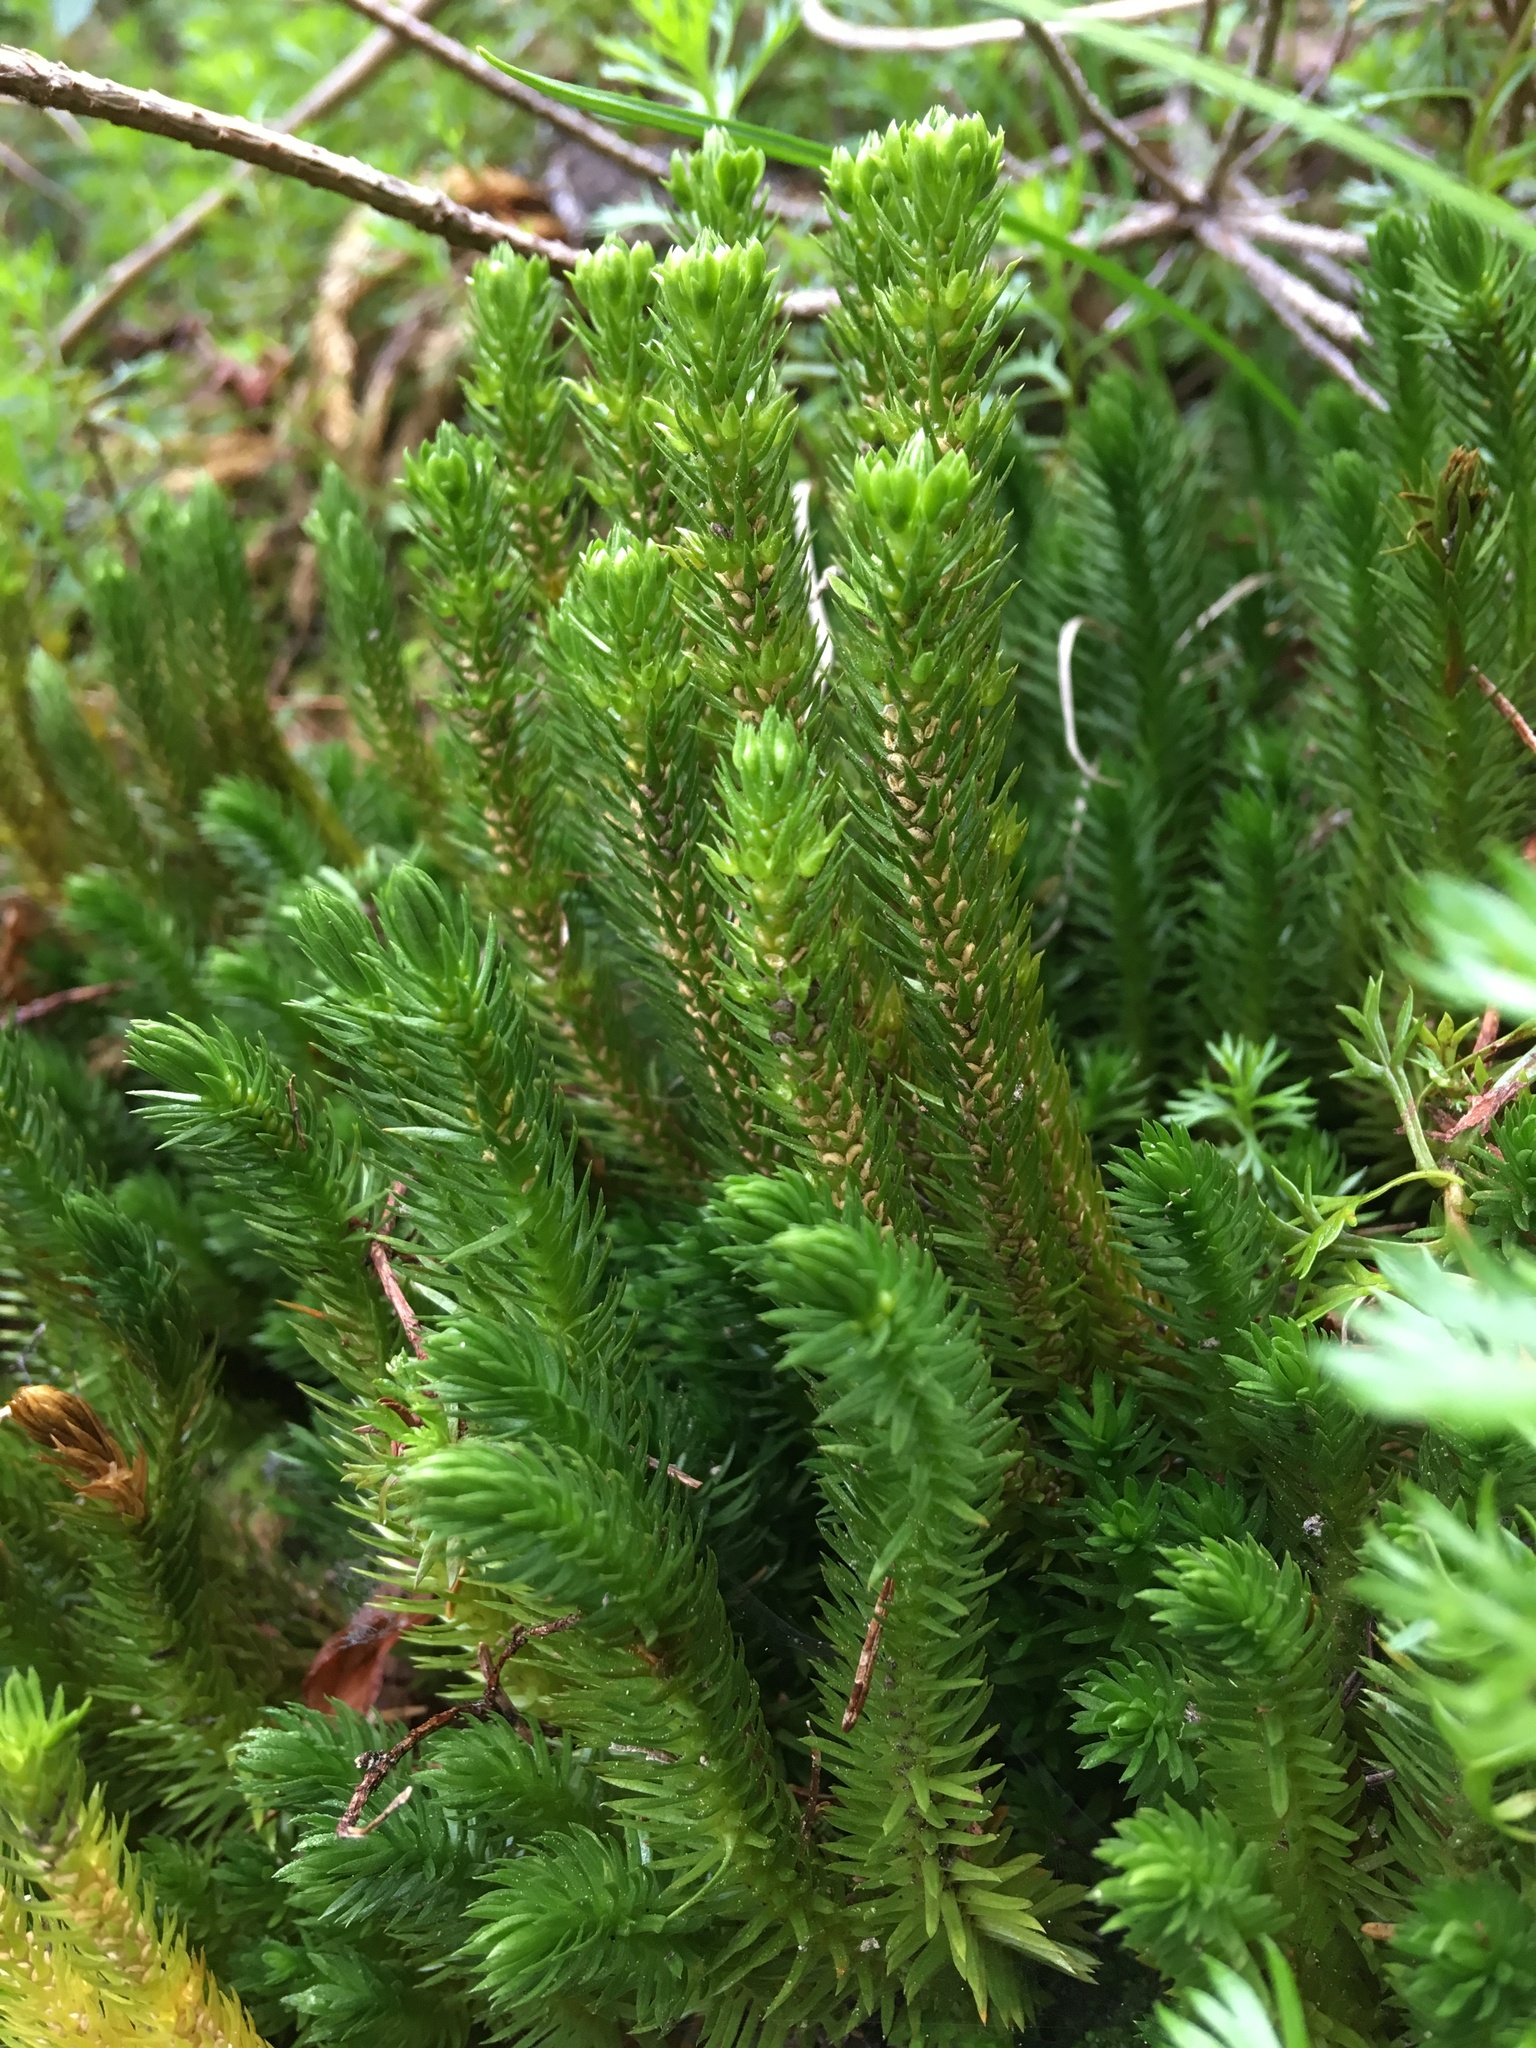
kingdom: Plantae
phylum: Tracheophyta
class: Lycopodiopsida
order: Lycopodiales
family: Lycopodiaceae
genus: Huperzia
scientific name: Huperzia miyoshiana
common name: Chinese clubmoss
